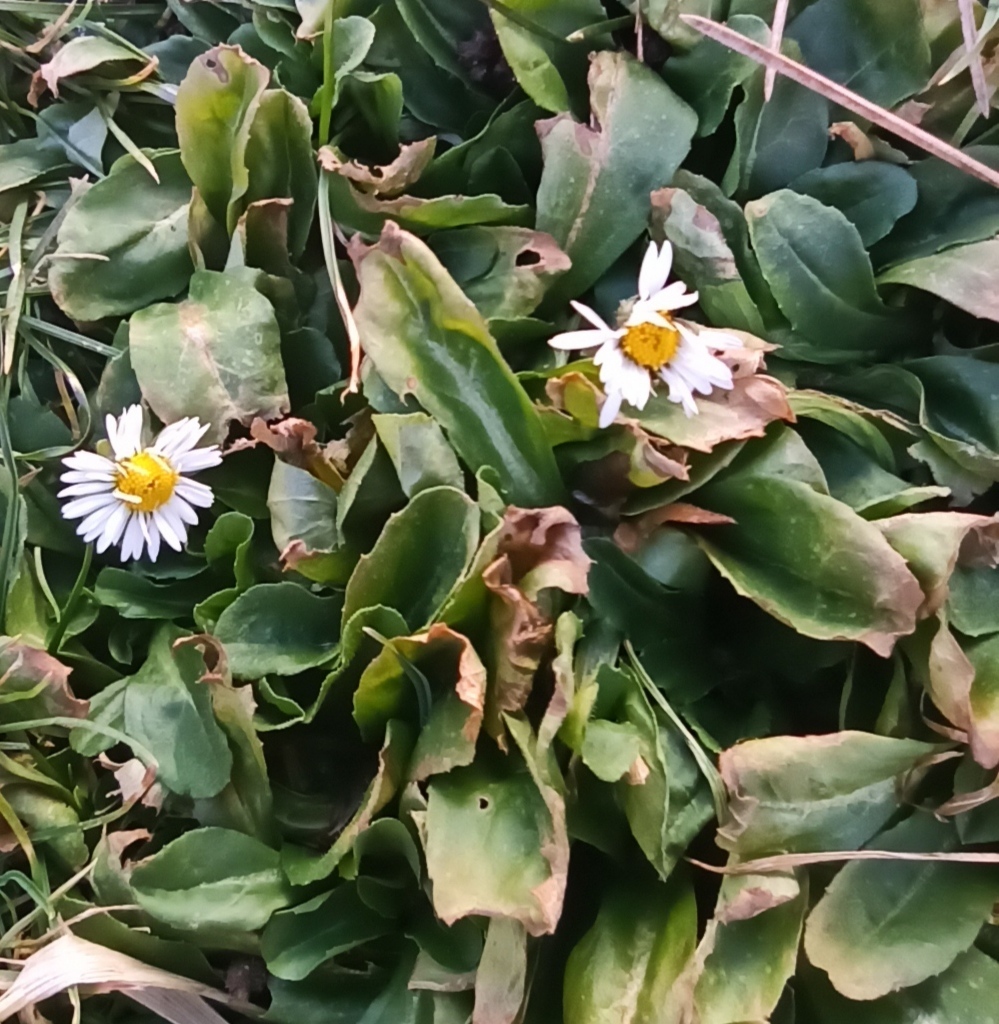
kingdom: Plantae
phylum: Tracheophyta
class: Magnoliopsida
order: Asterales
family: Asteraceae
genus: Bellis
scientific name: Bellis perennis
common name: Lawndaisy
